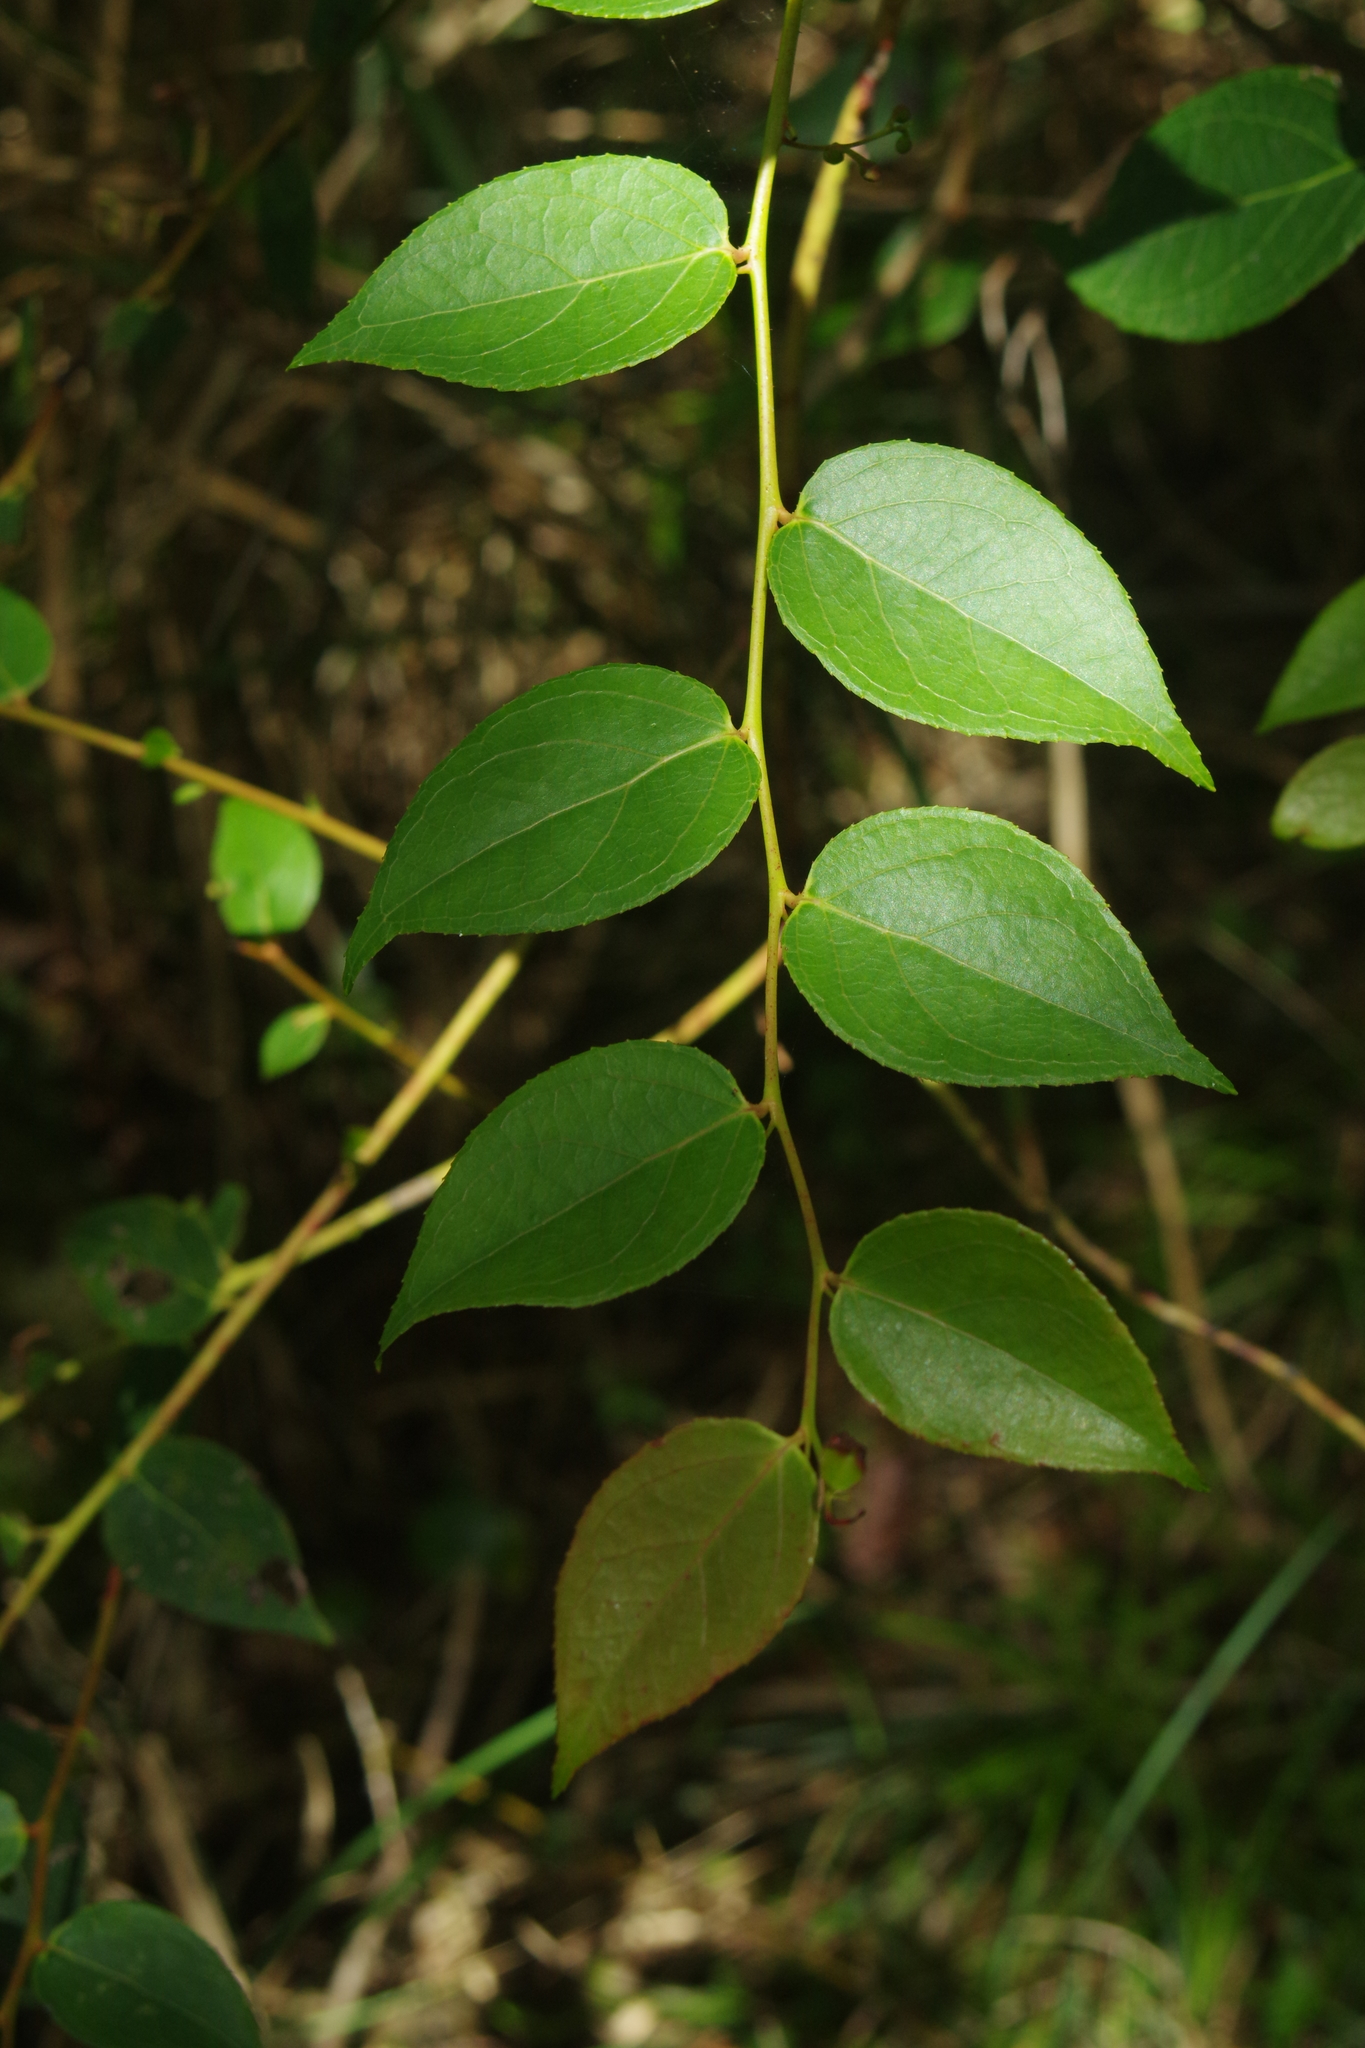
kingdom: Plantae
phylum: Tracheophyta
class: Magnoliopsida
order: Ericales
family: Ericaceae
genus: Gaultheria
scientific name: Gaultheria leucocarpa
